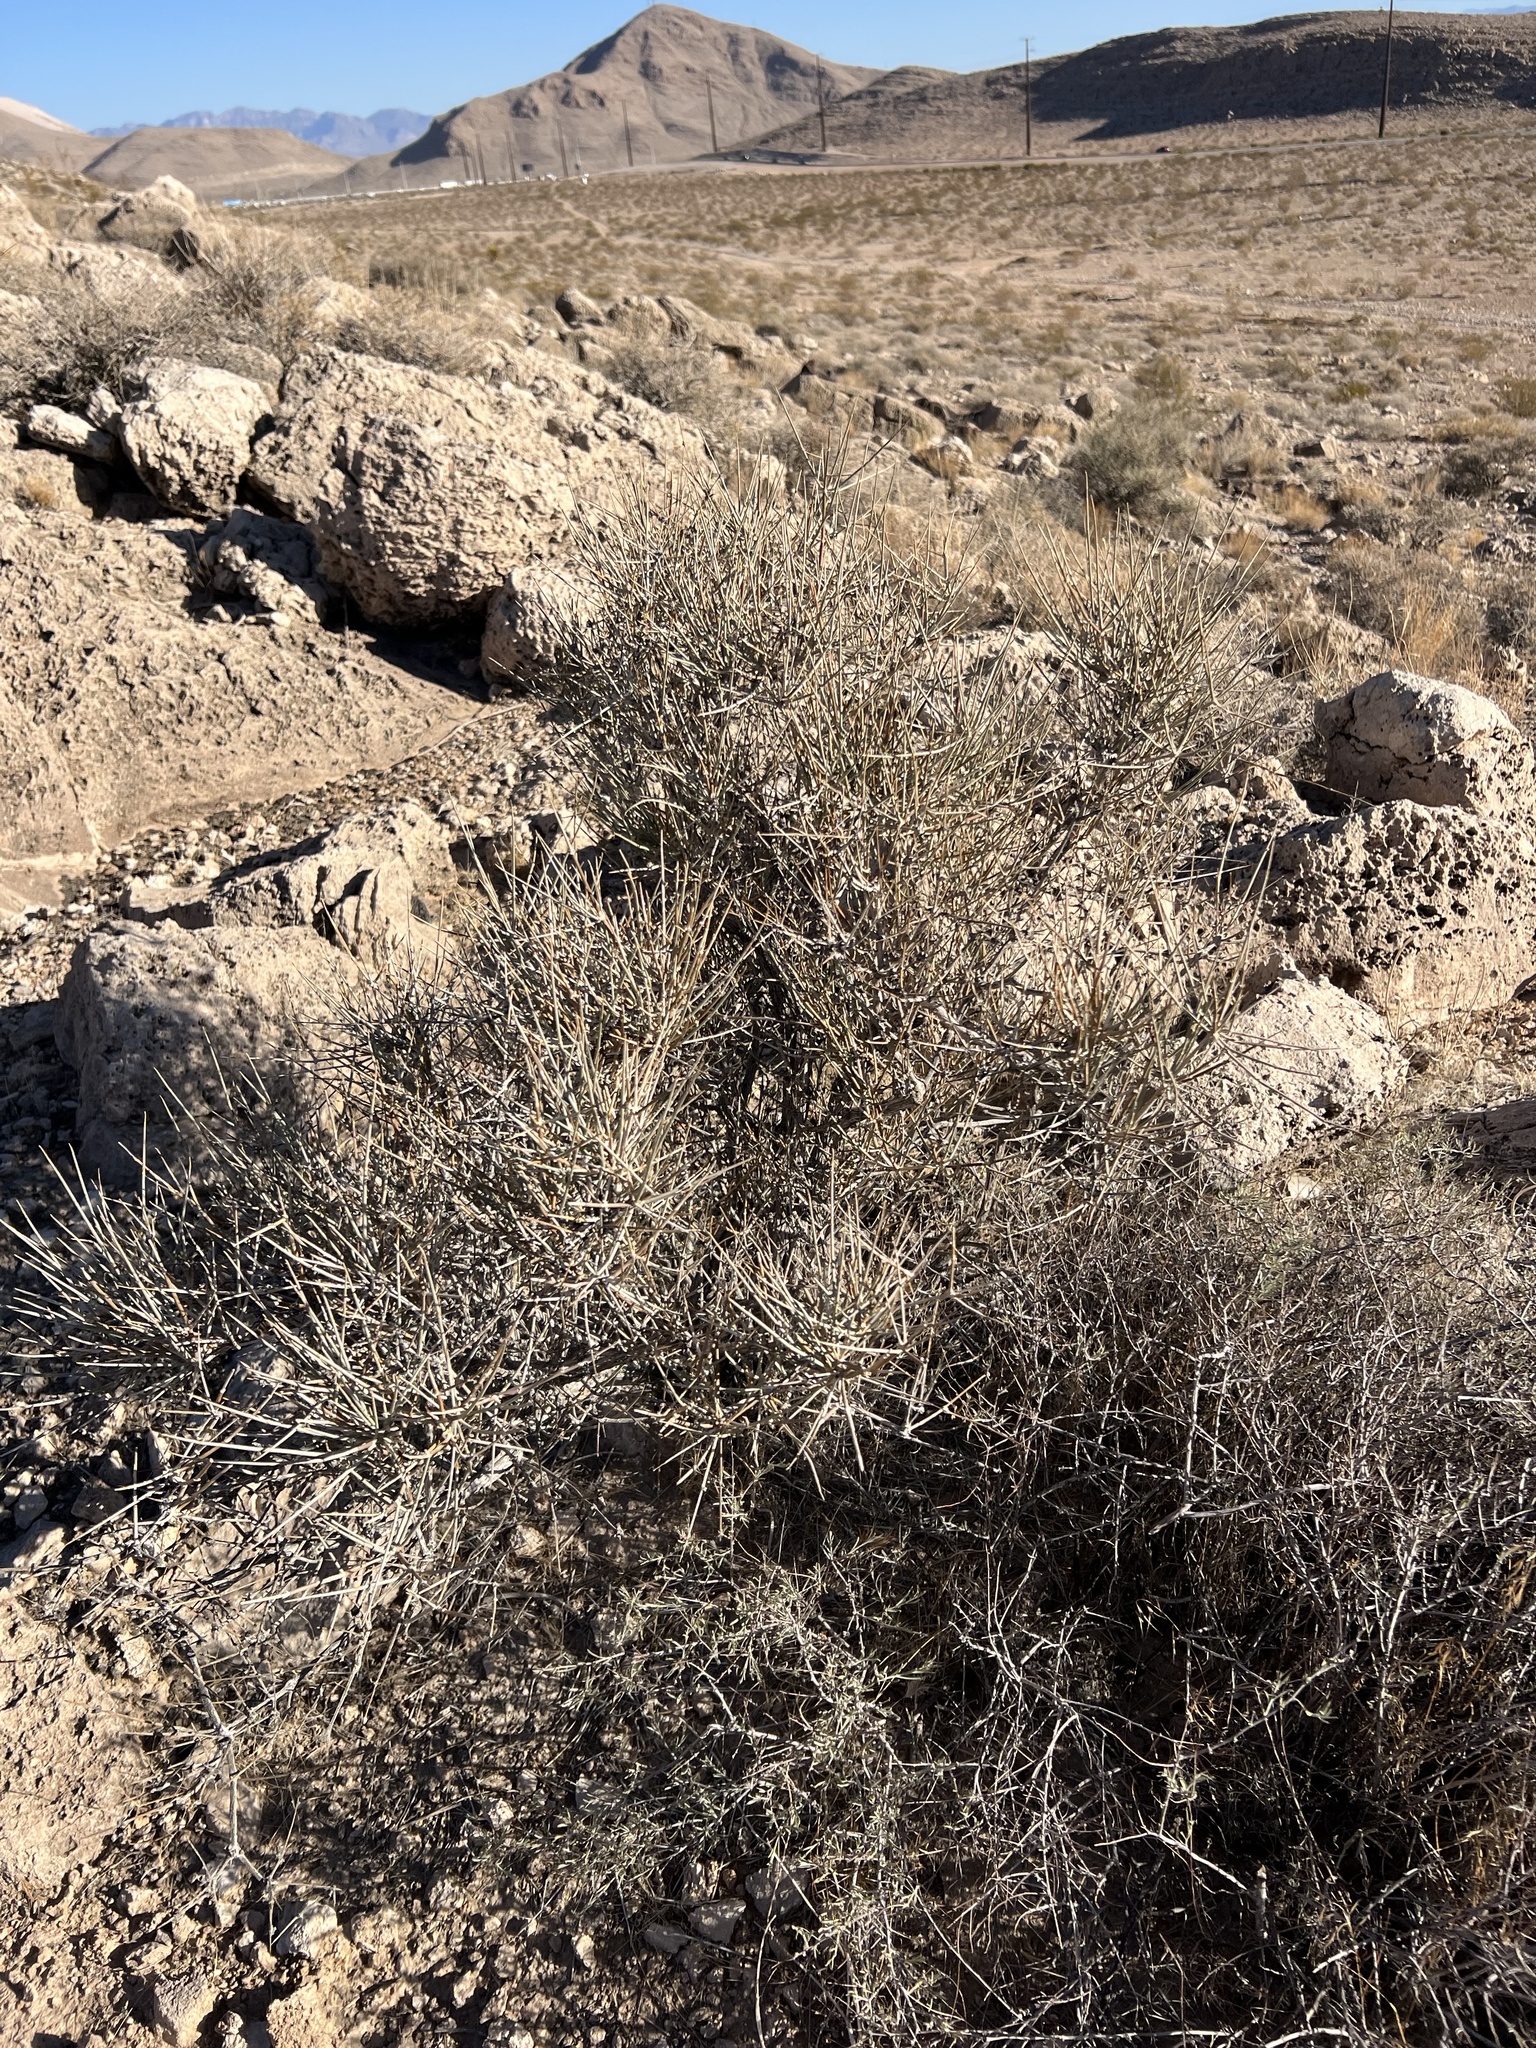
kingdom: Plantae
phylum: Tracheophyta
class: Magnoliopsida
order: Zygophyllales
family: Zygophyllaceae
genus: Larrea
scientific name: Larrea tridentata
